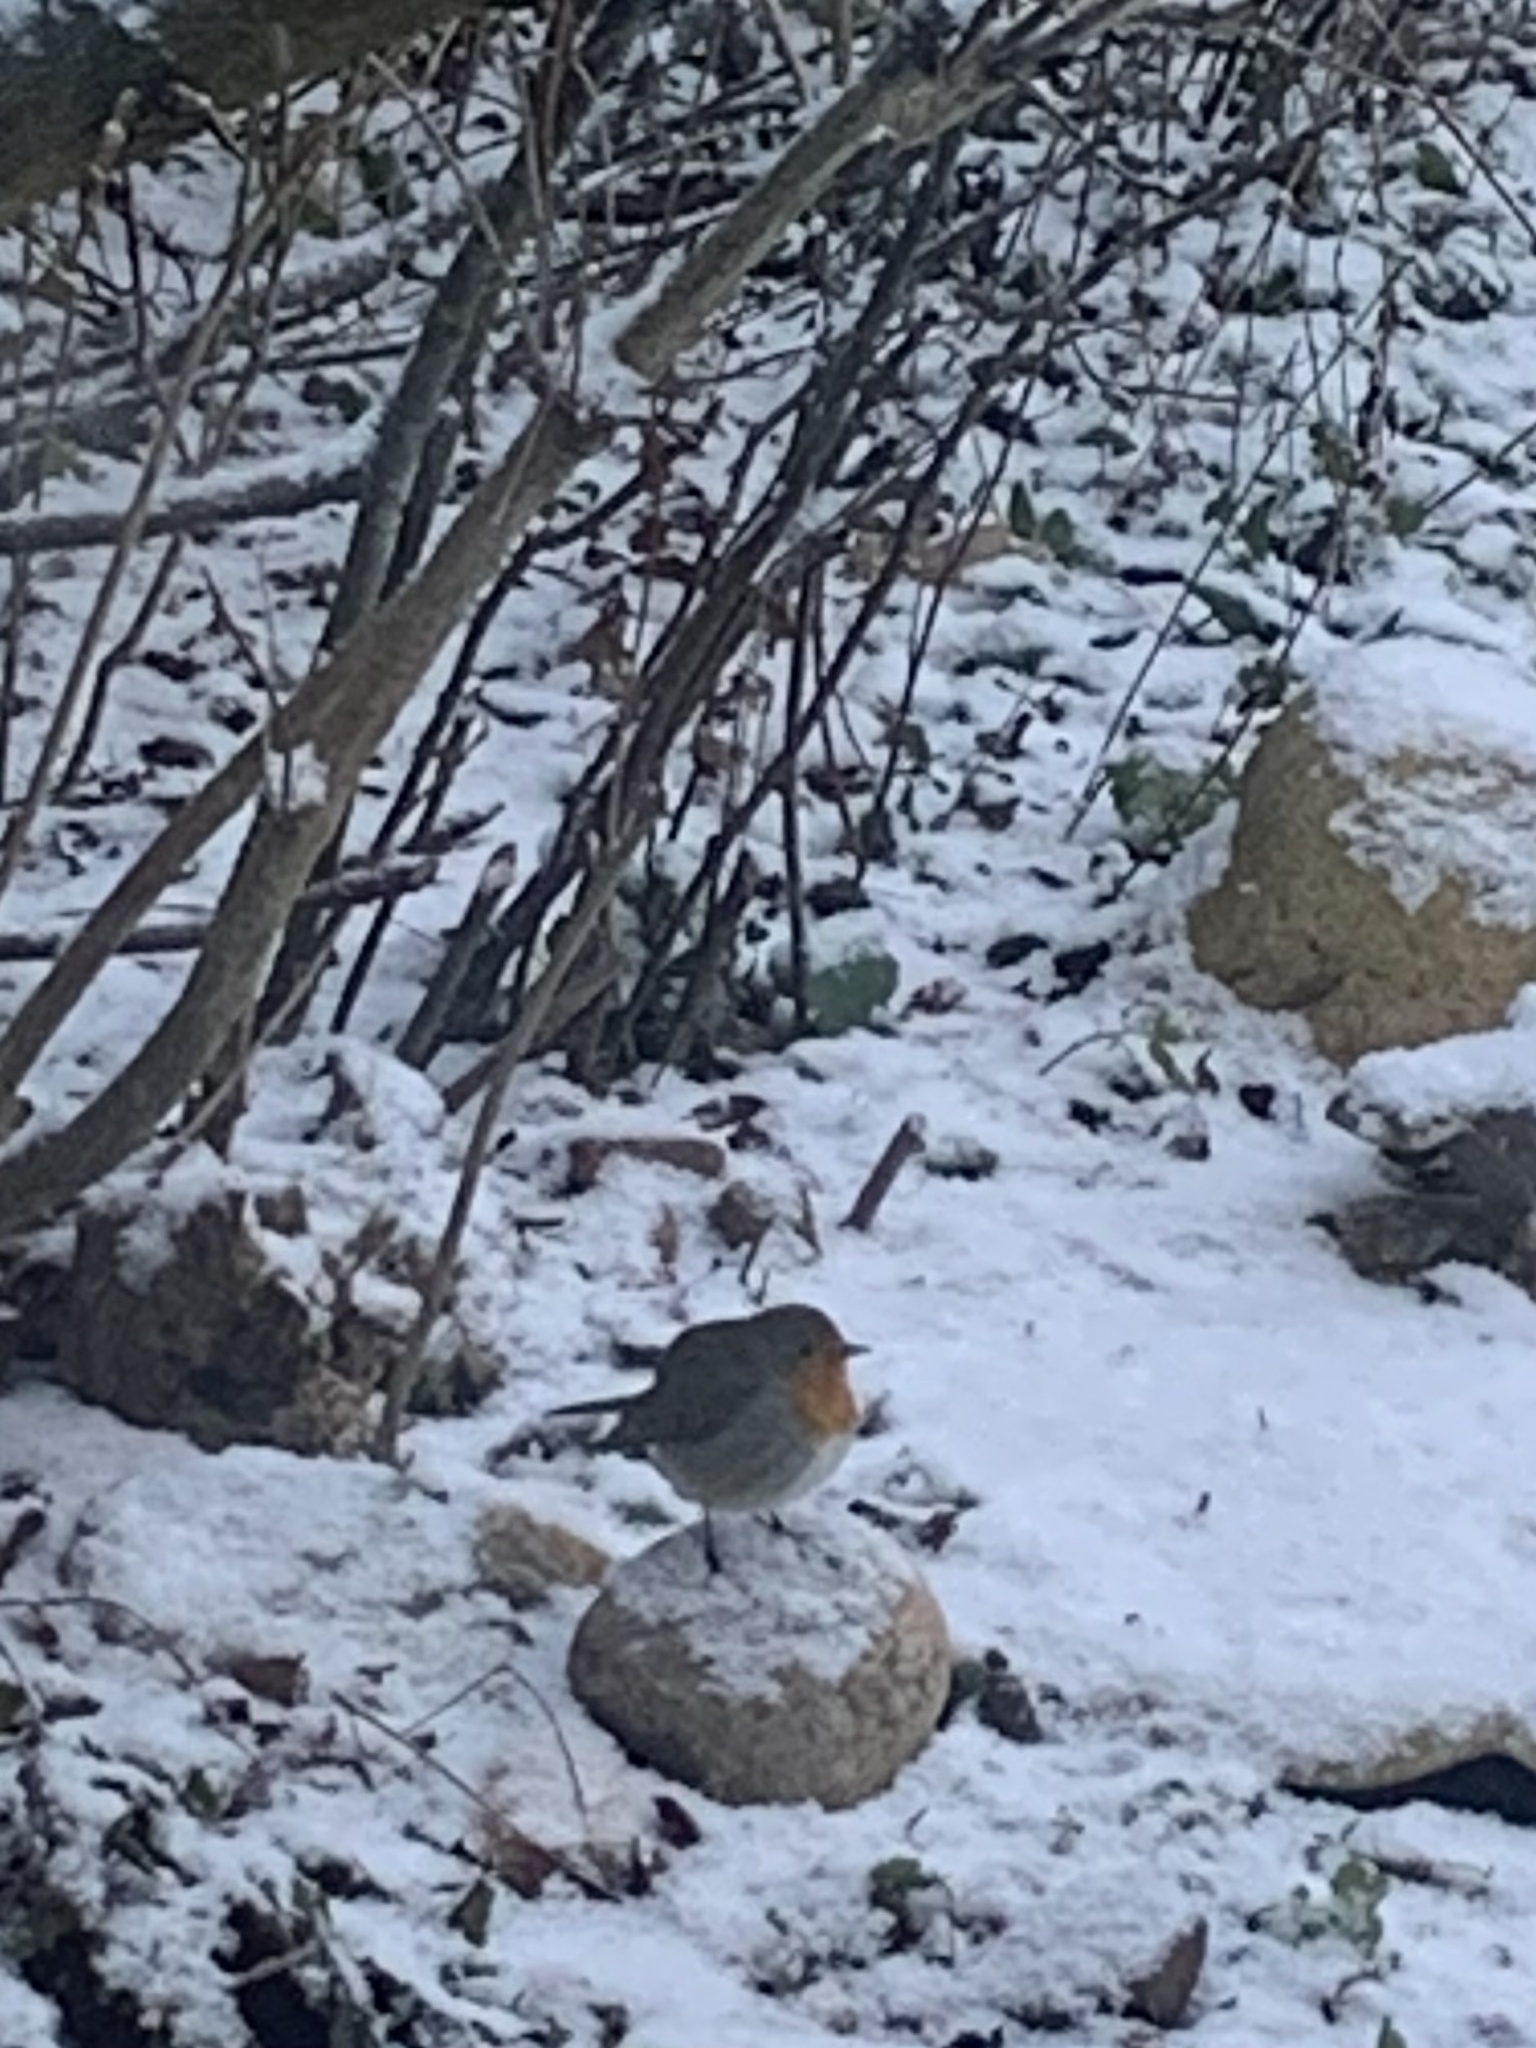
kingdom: Animalia
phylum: Chordata
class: Aves
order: Passeriformes
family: Muscicapidae
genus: Erithacus
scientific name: Erithacus rubecula
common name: European robin
